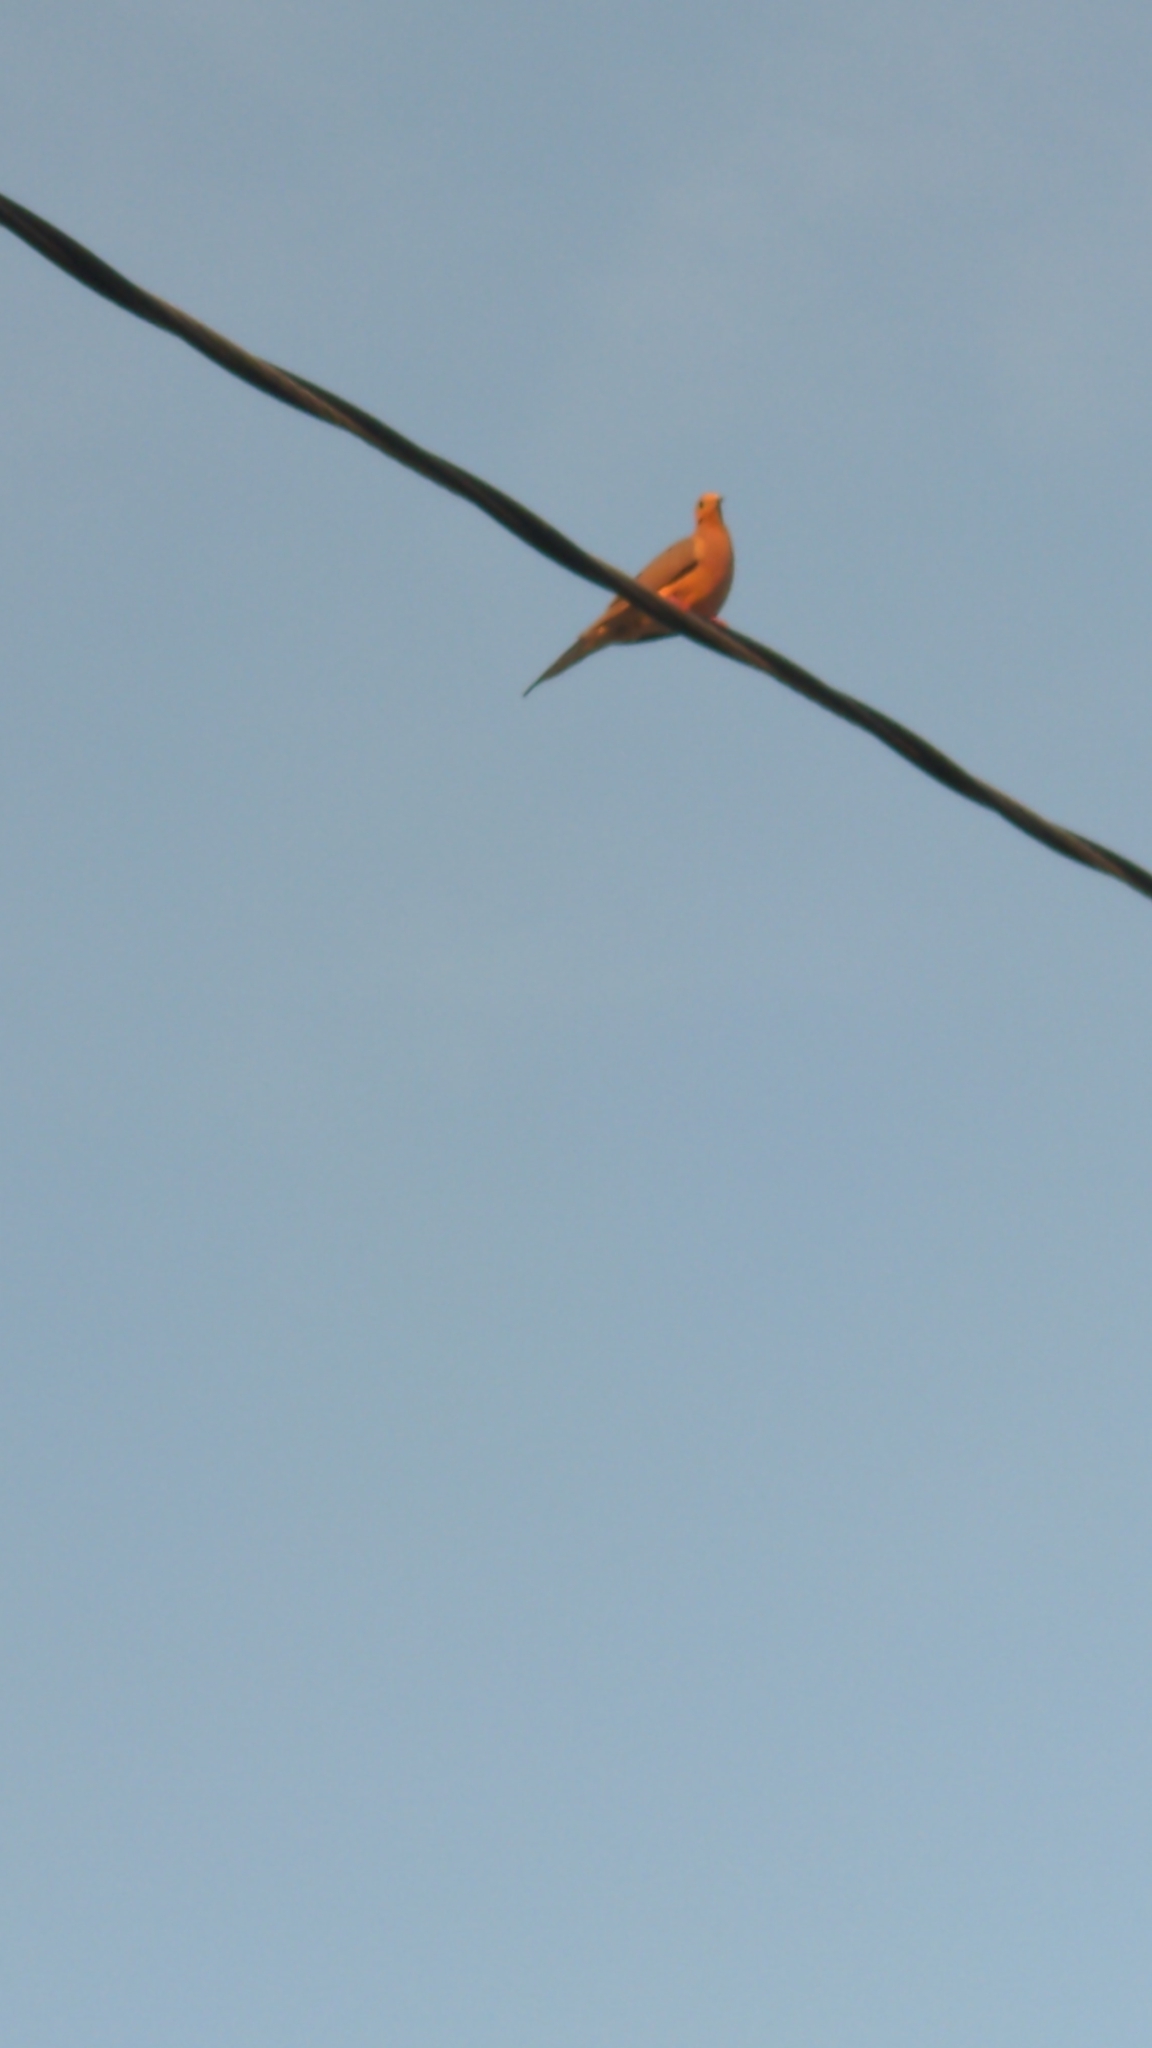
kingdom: Animalia
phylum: Chordata
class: Aves
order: Columbiformes
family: Columbidae
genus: Zenaida
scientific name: Zenaida macroura
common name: Mourning dove
